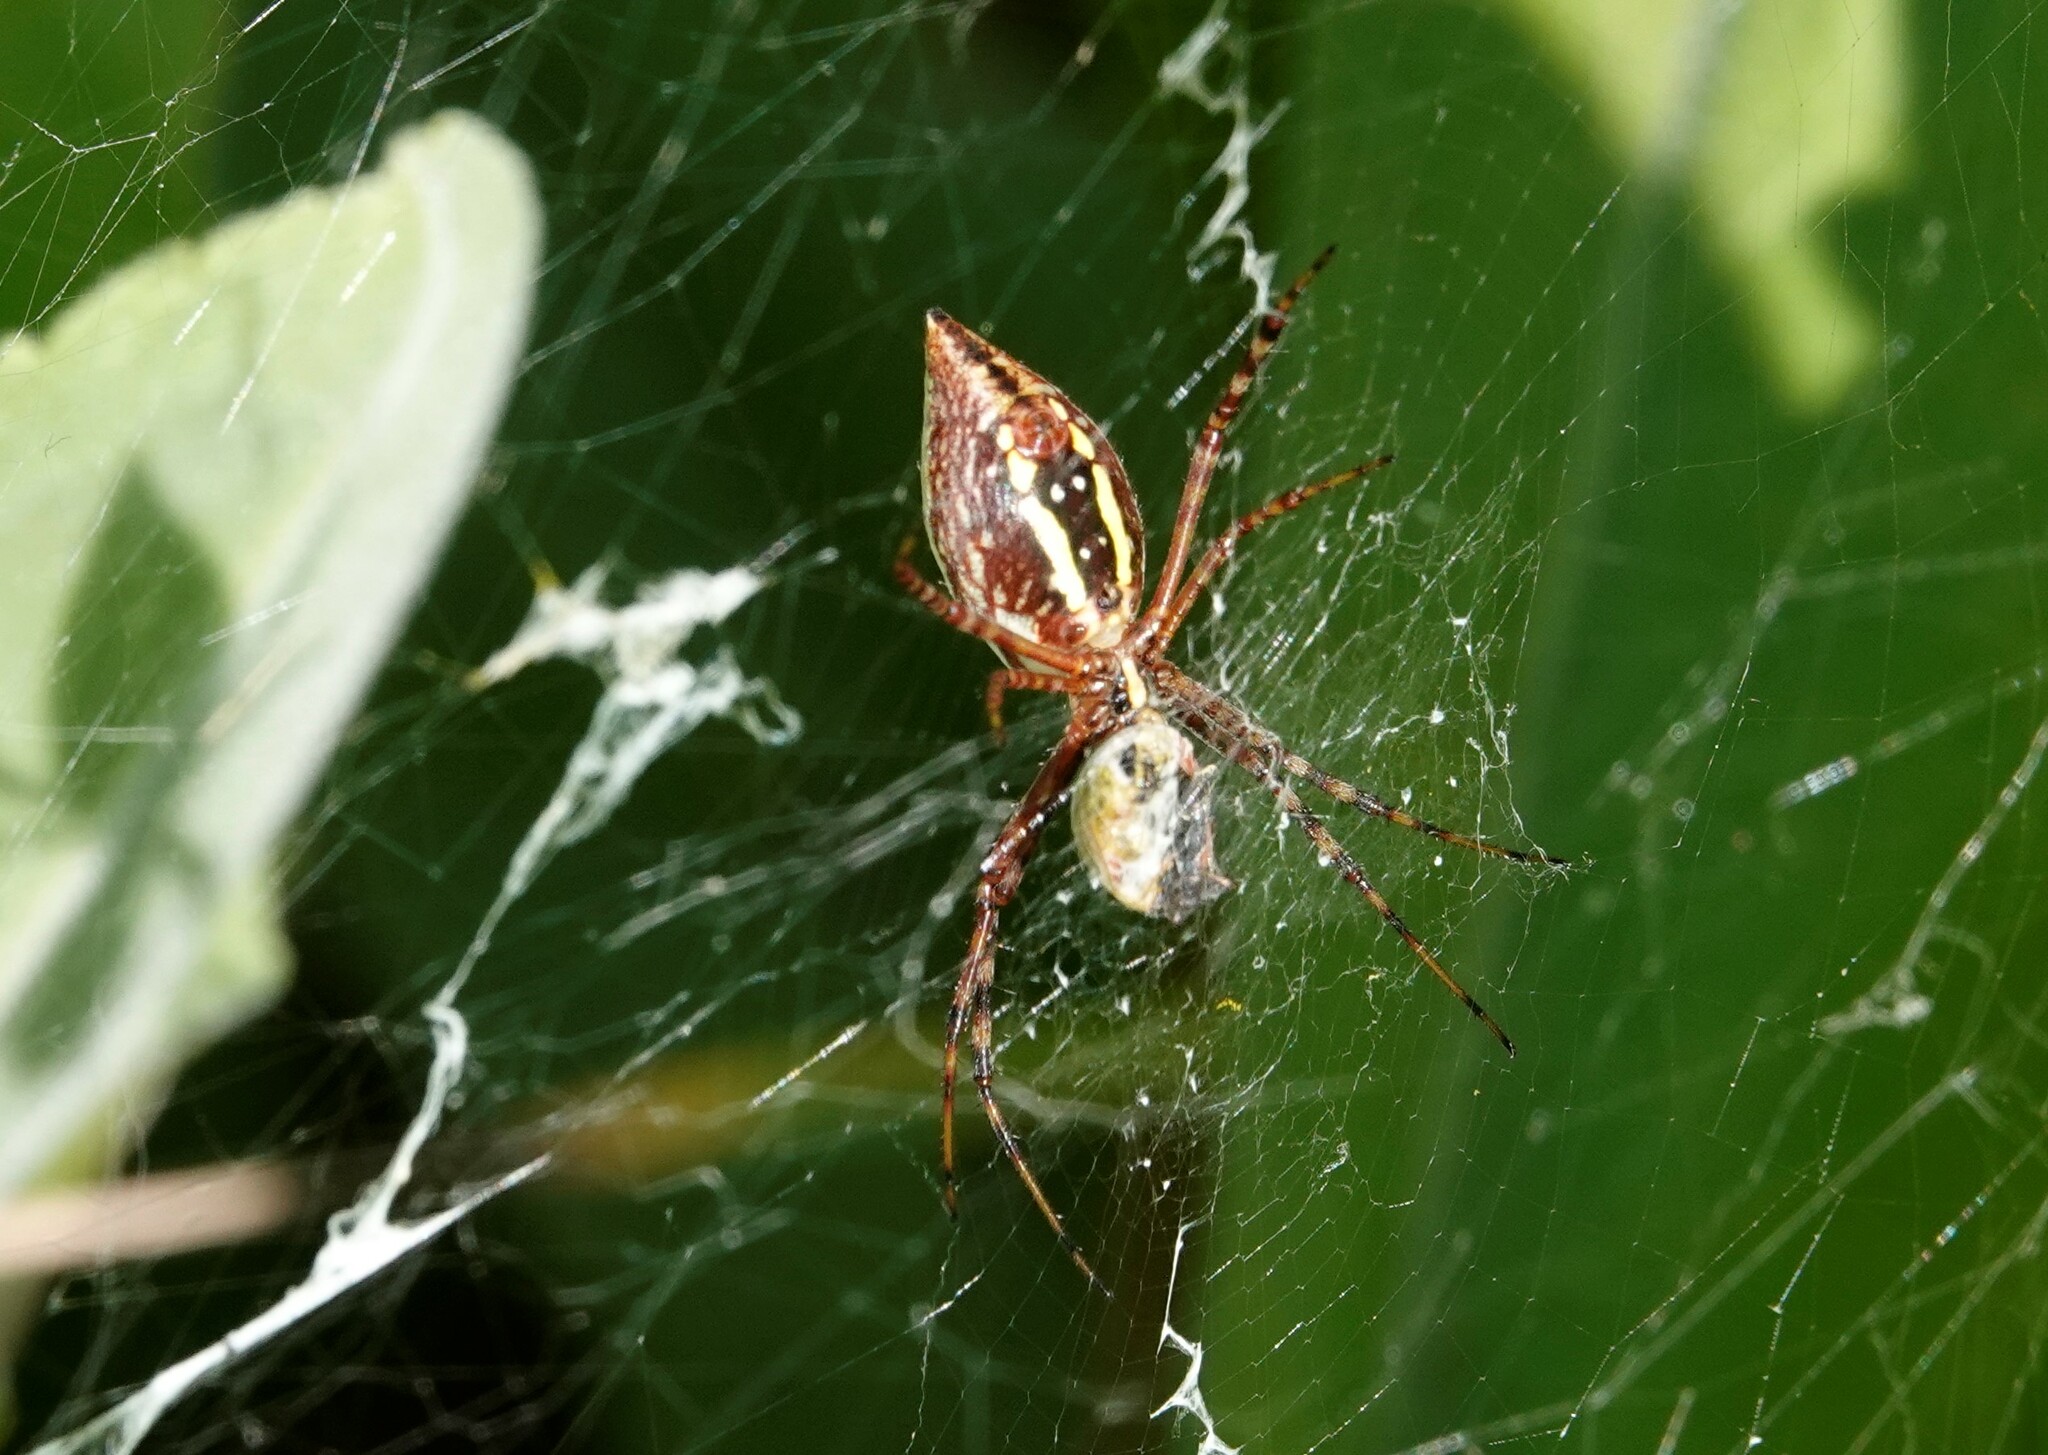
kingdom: Animalia
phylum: Arthropoda
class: Arachnida
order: Araneae
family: Araneidae
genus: Argiope
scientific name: Argiope trifasciata
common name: Banded garden spider
